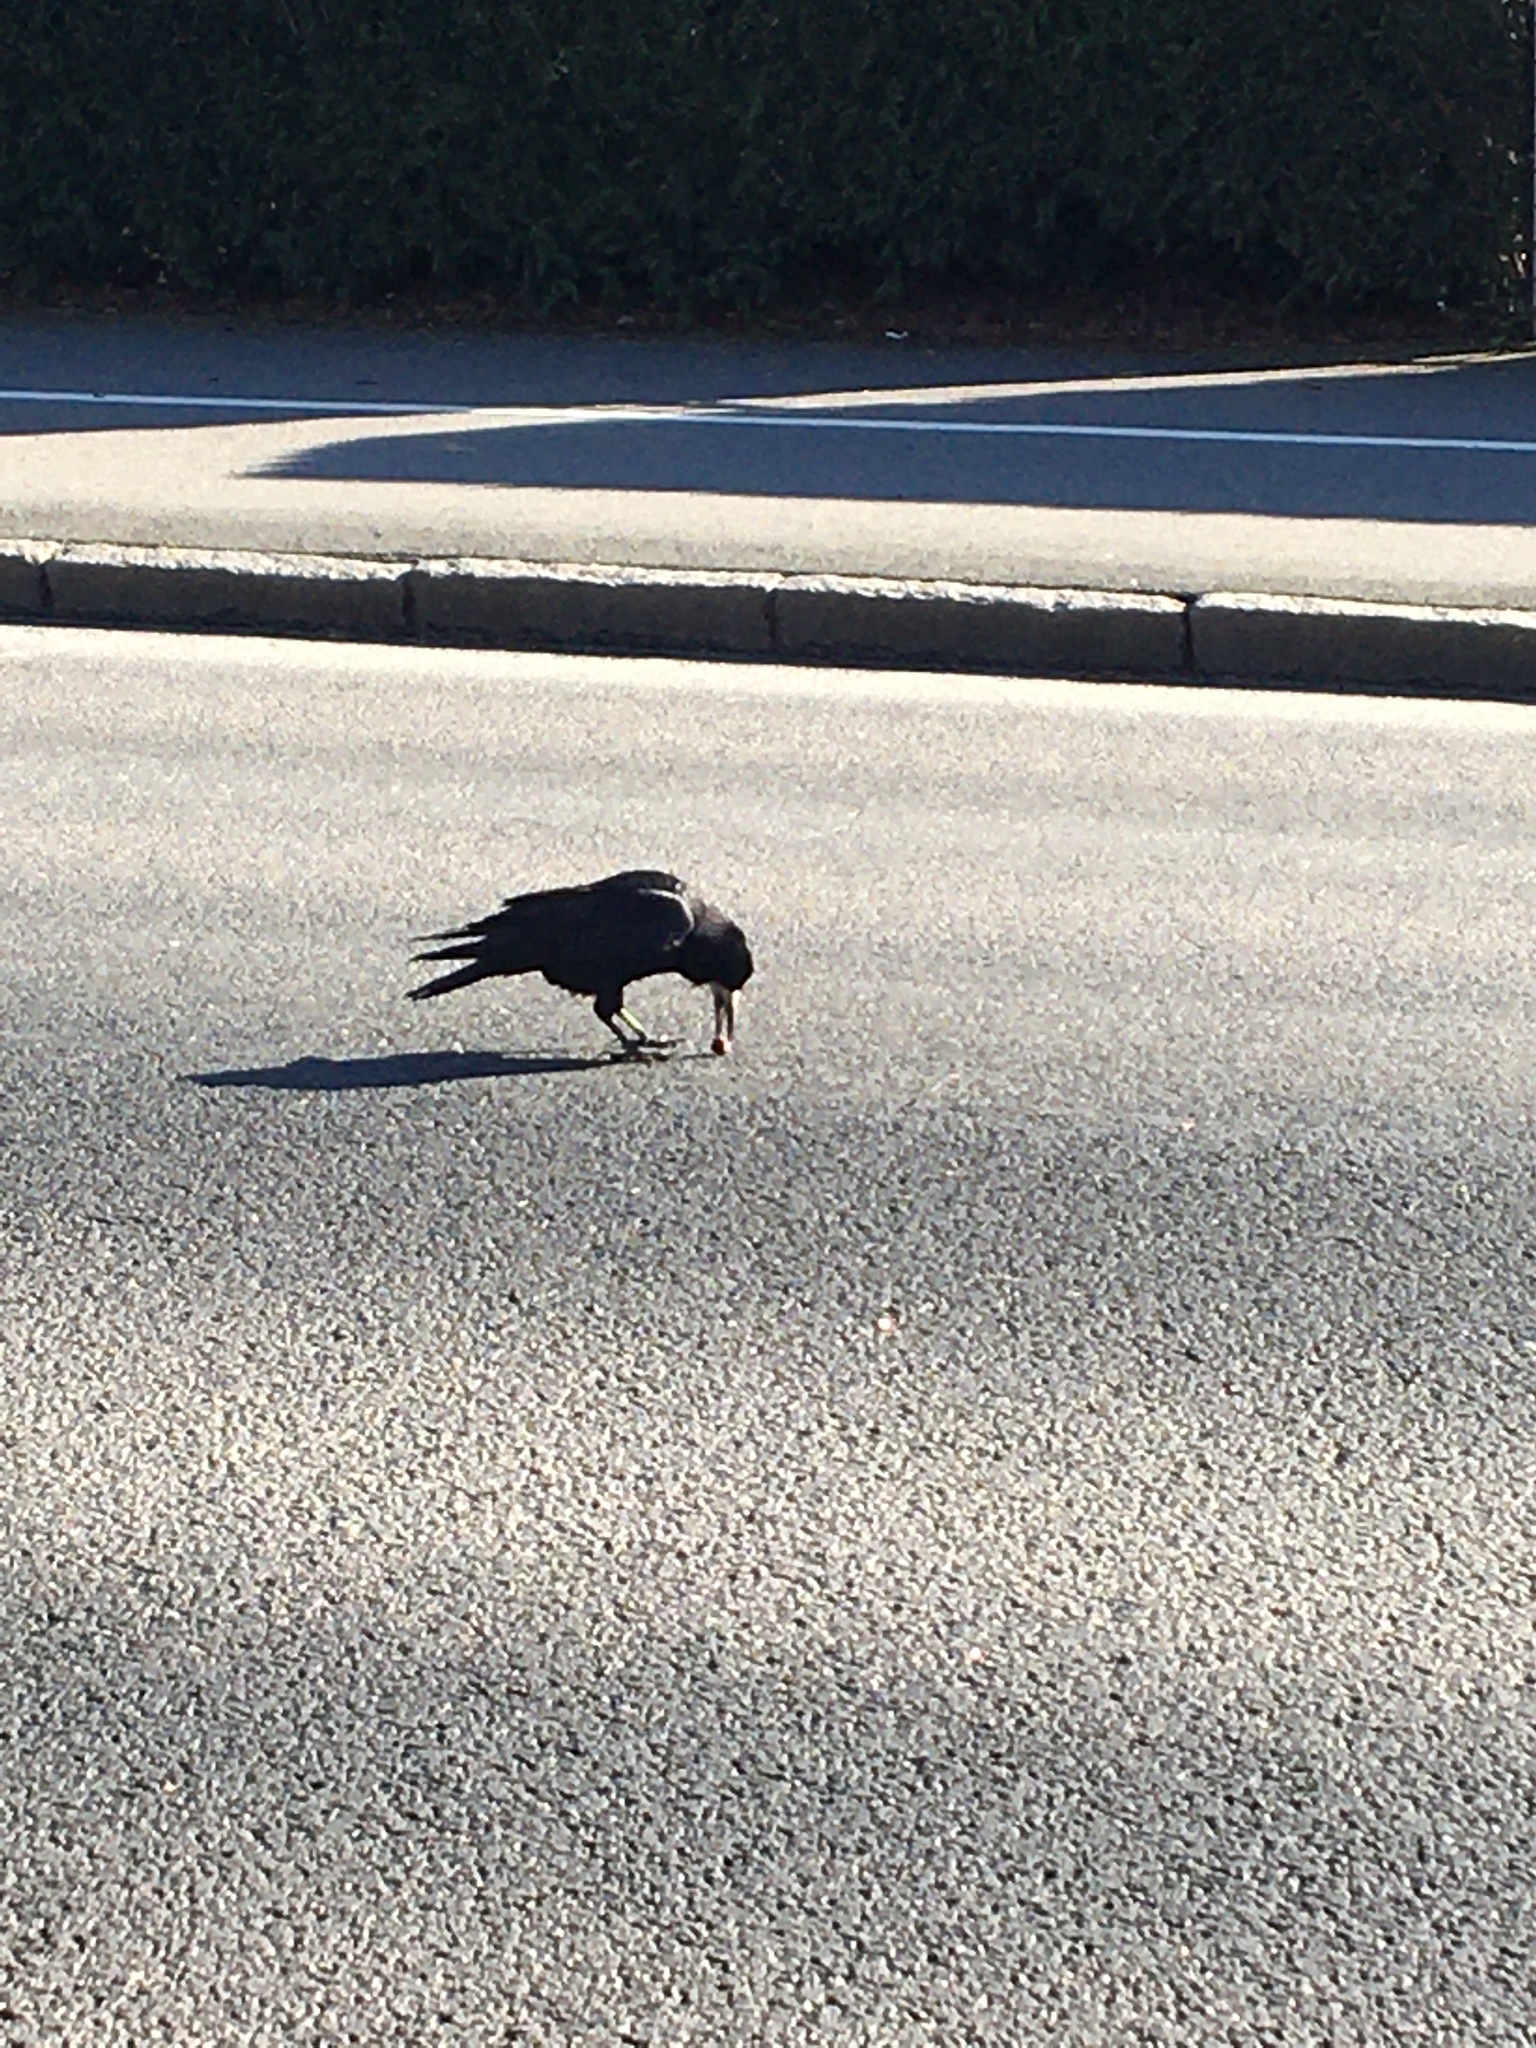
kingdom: Animalia
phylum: Chordata
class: Aves
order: Passeriformes
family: Corvidae
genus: Corvus
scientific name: Corvus frugilegus
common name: Rook
